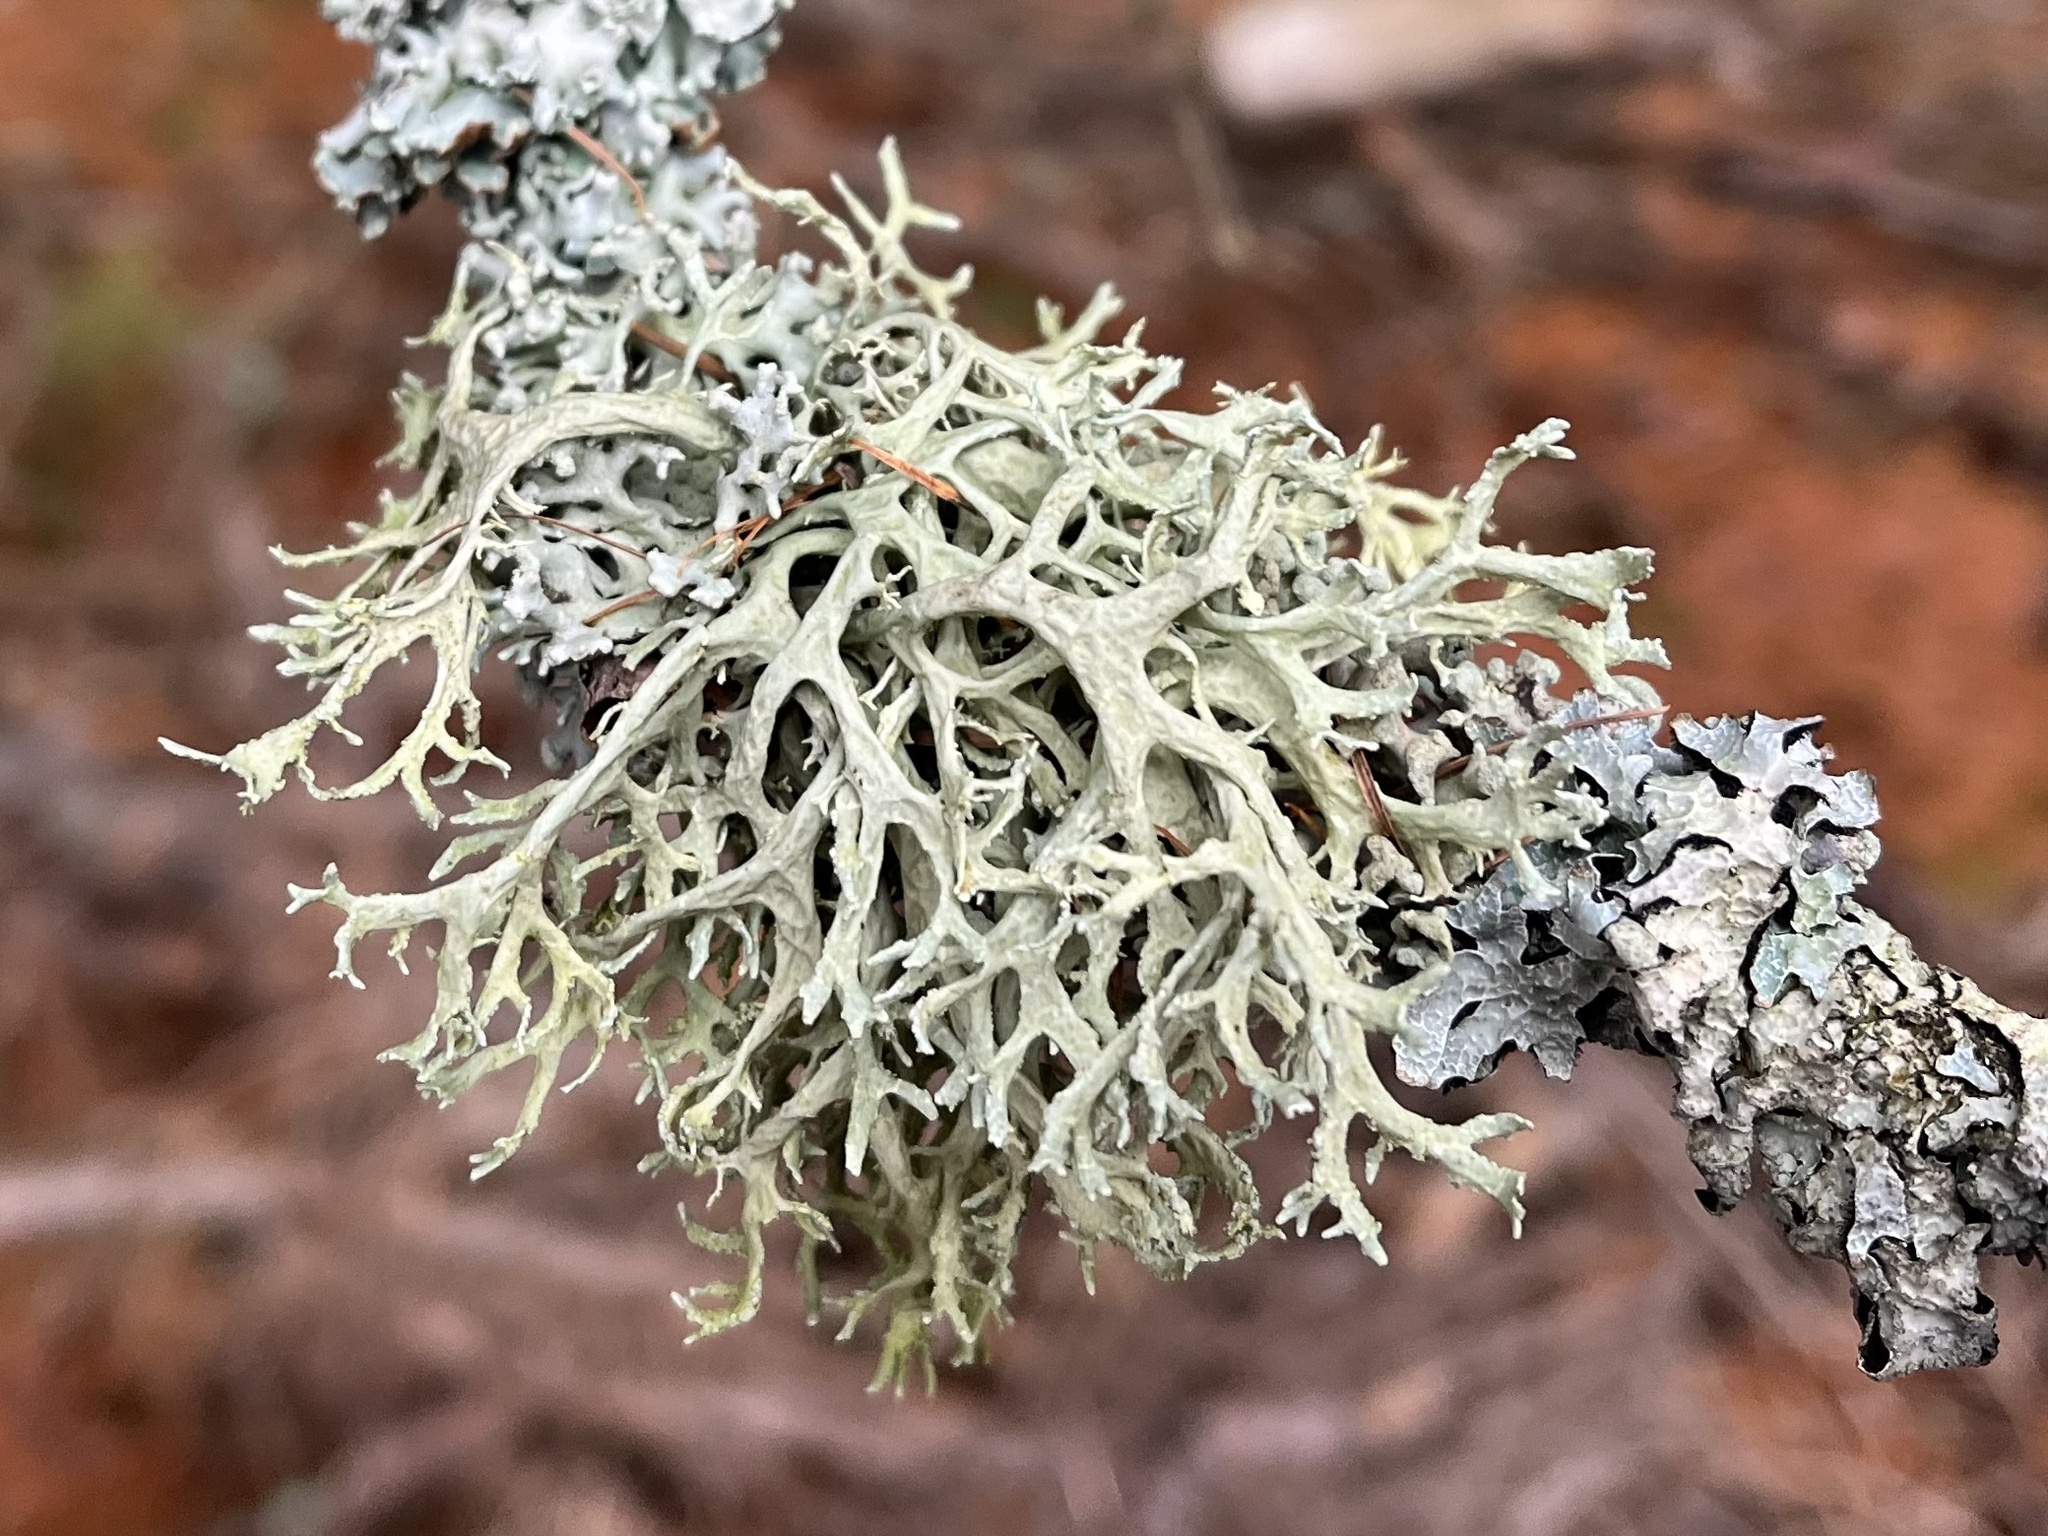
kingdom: Fungi
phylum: Ascomycota
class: Lecanoromycetes
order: Lecanorales
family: Parmeliaceae
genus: Evernia
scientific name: Evernia prunastri
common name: Oak moss
